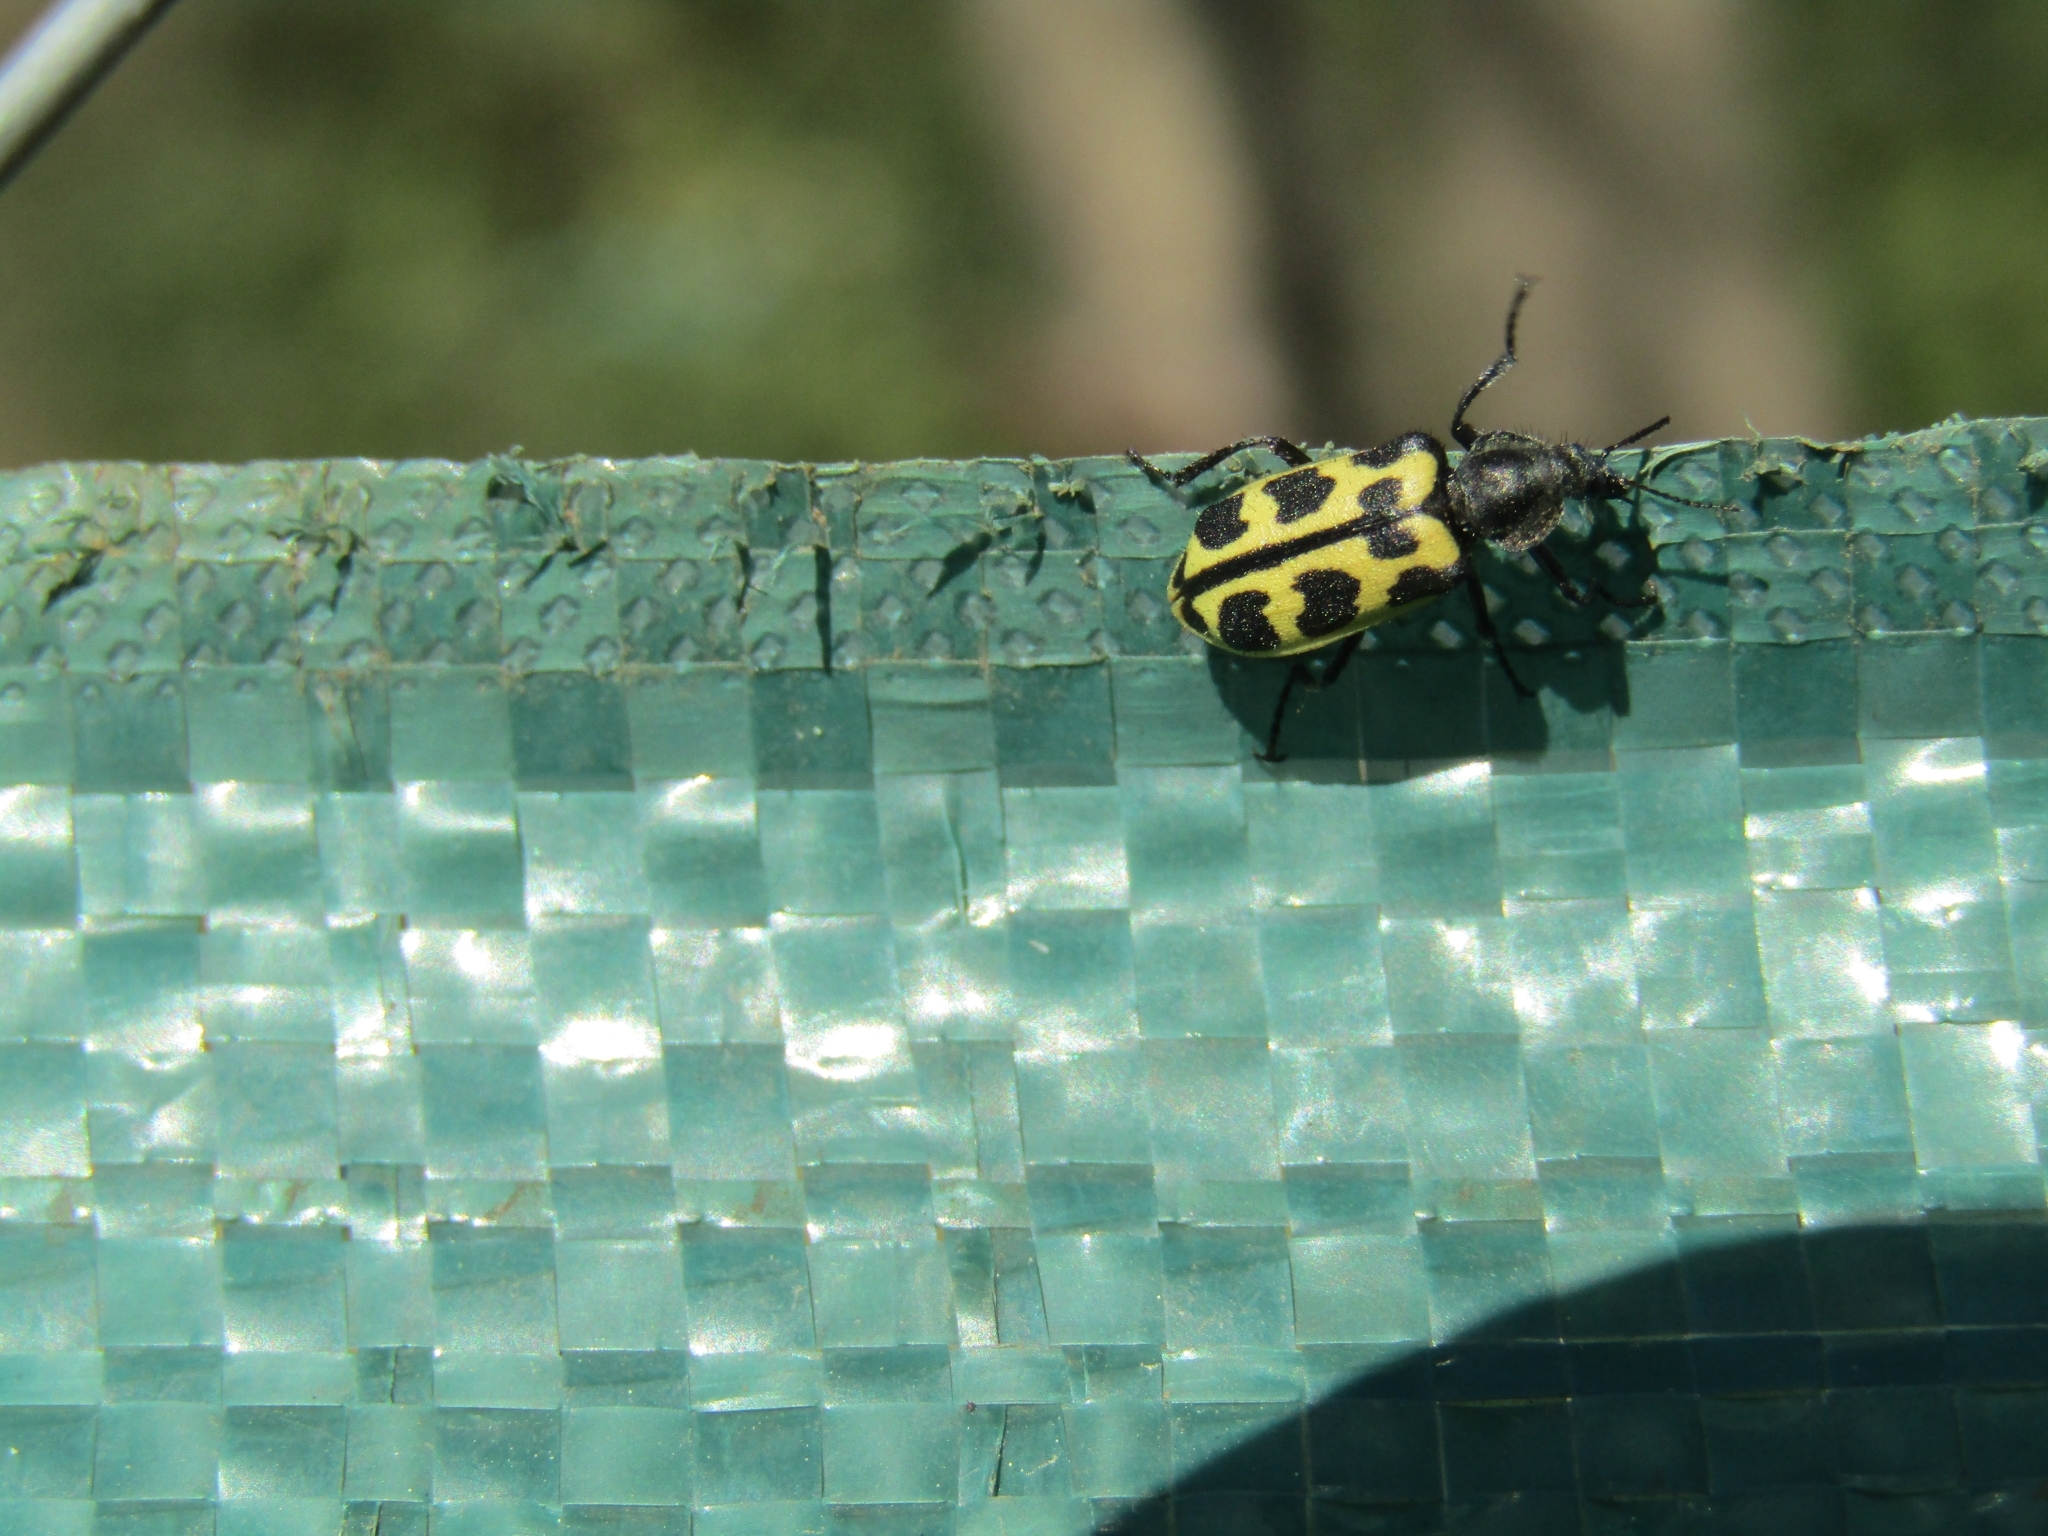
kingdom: Animalia
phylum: Arthropoda
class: Insecta
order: Coleoptera
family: Melyridae
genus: Astylus
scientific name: Astylus atromaculatus
